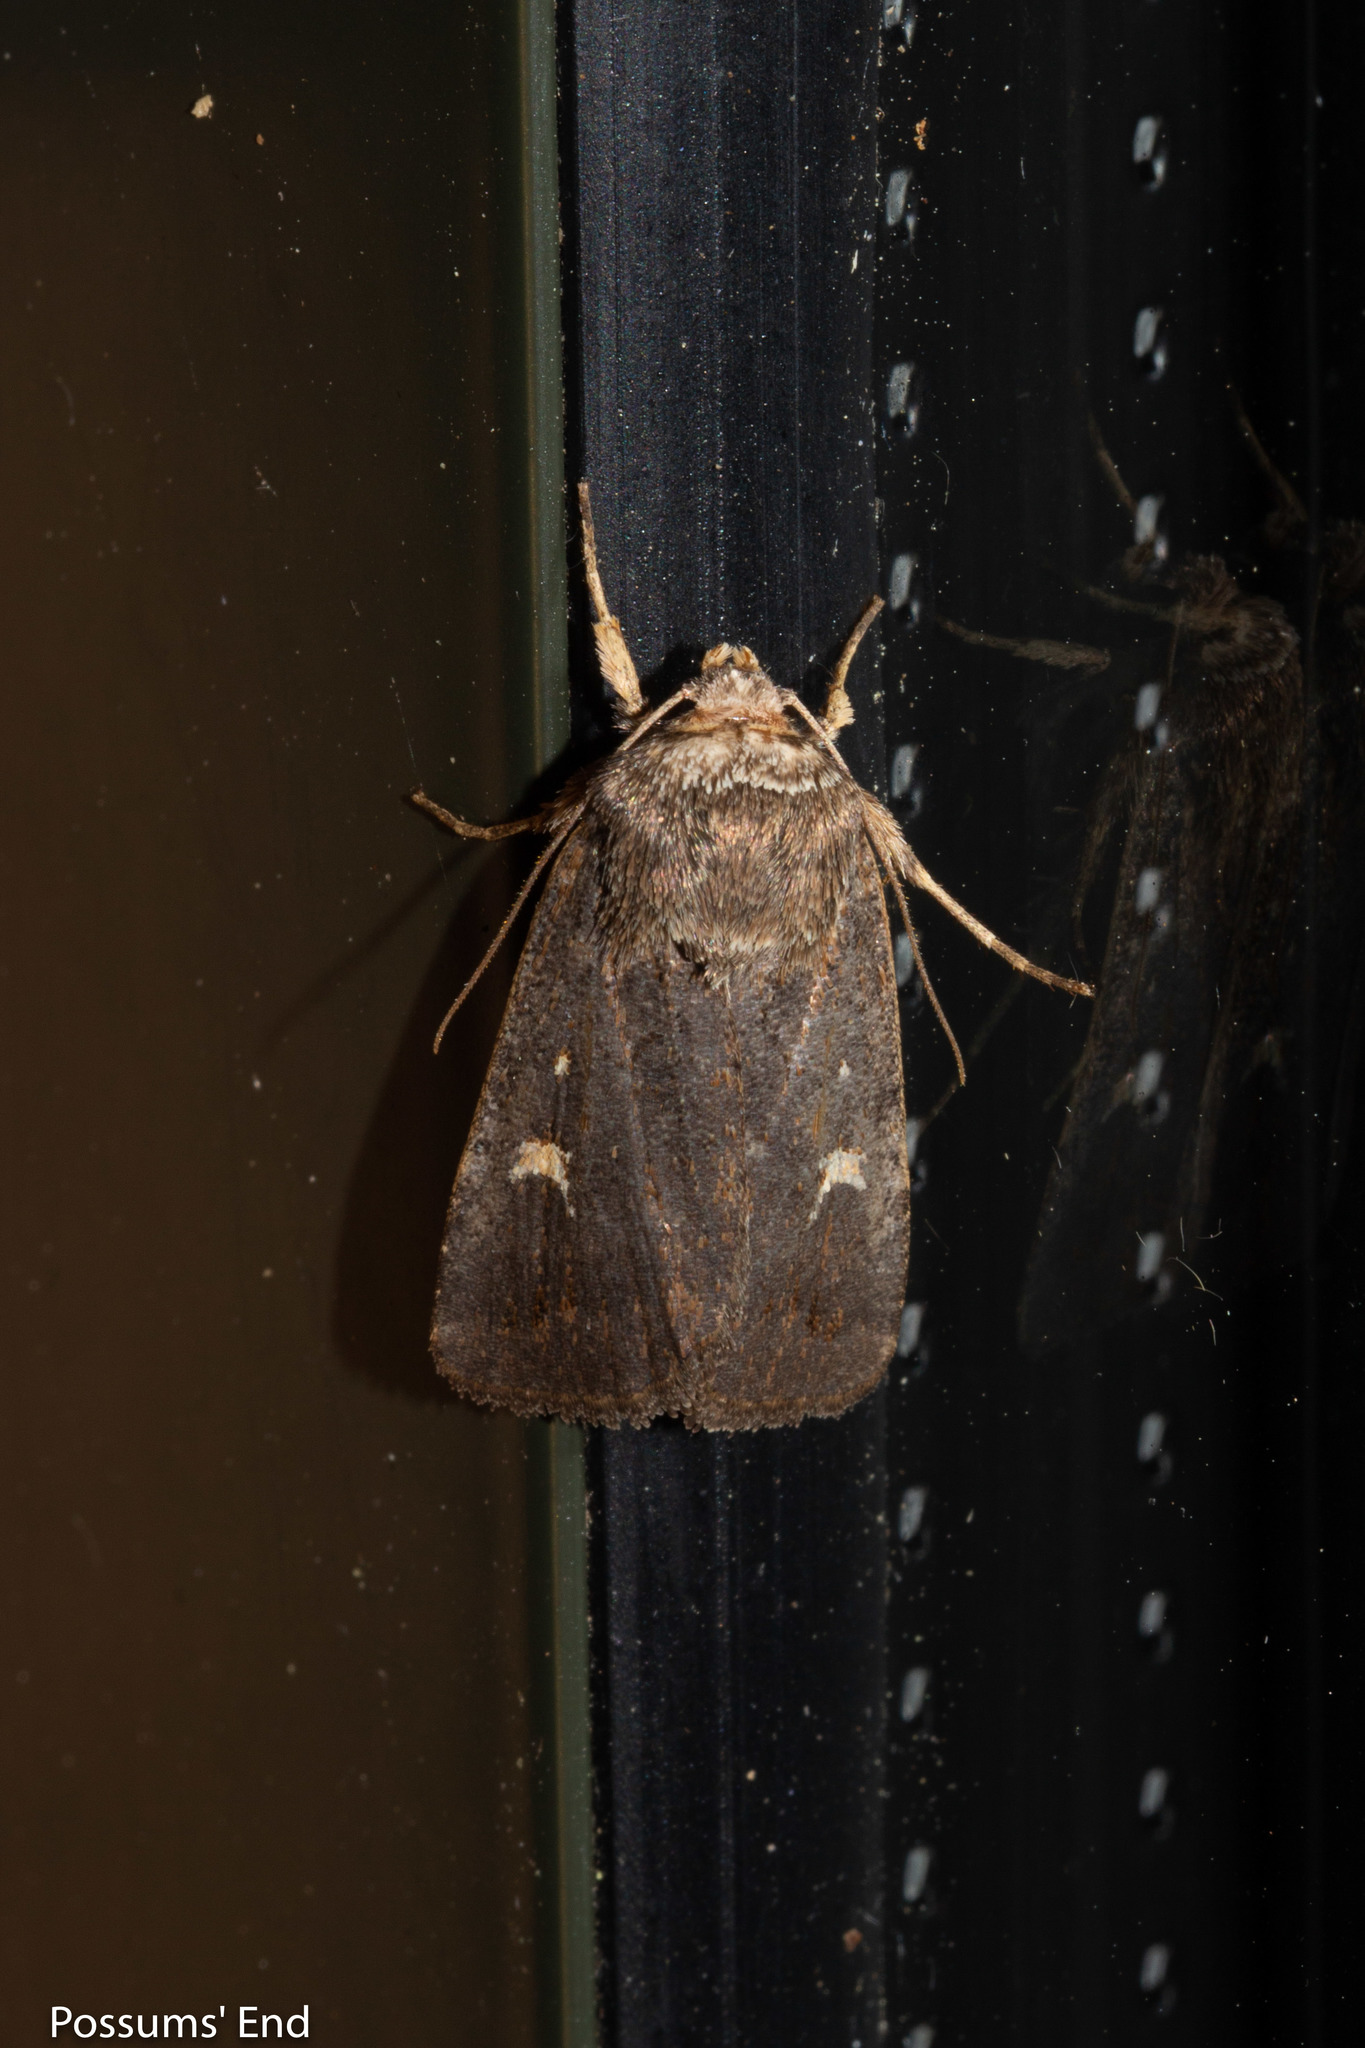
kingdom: Animalia
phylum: Arthropoda
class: Insecta
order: Lepidoptera
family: Noctuidae
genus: Proteuxoa
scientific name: Proteuxoa tetronycha
